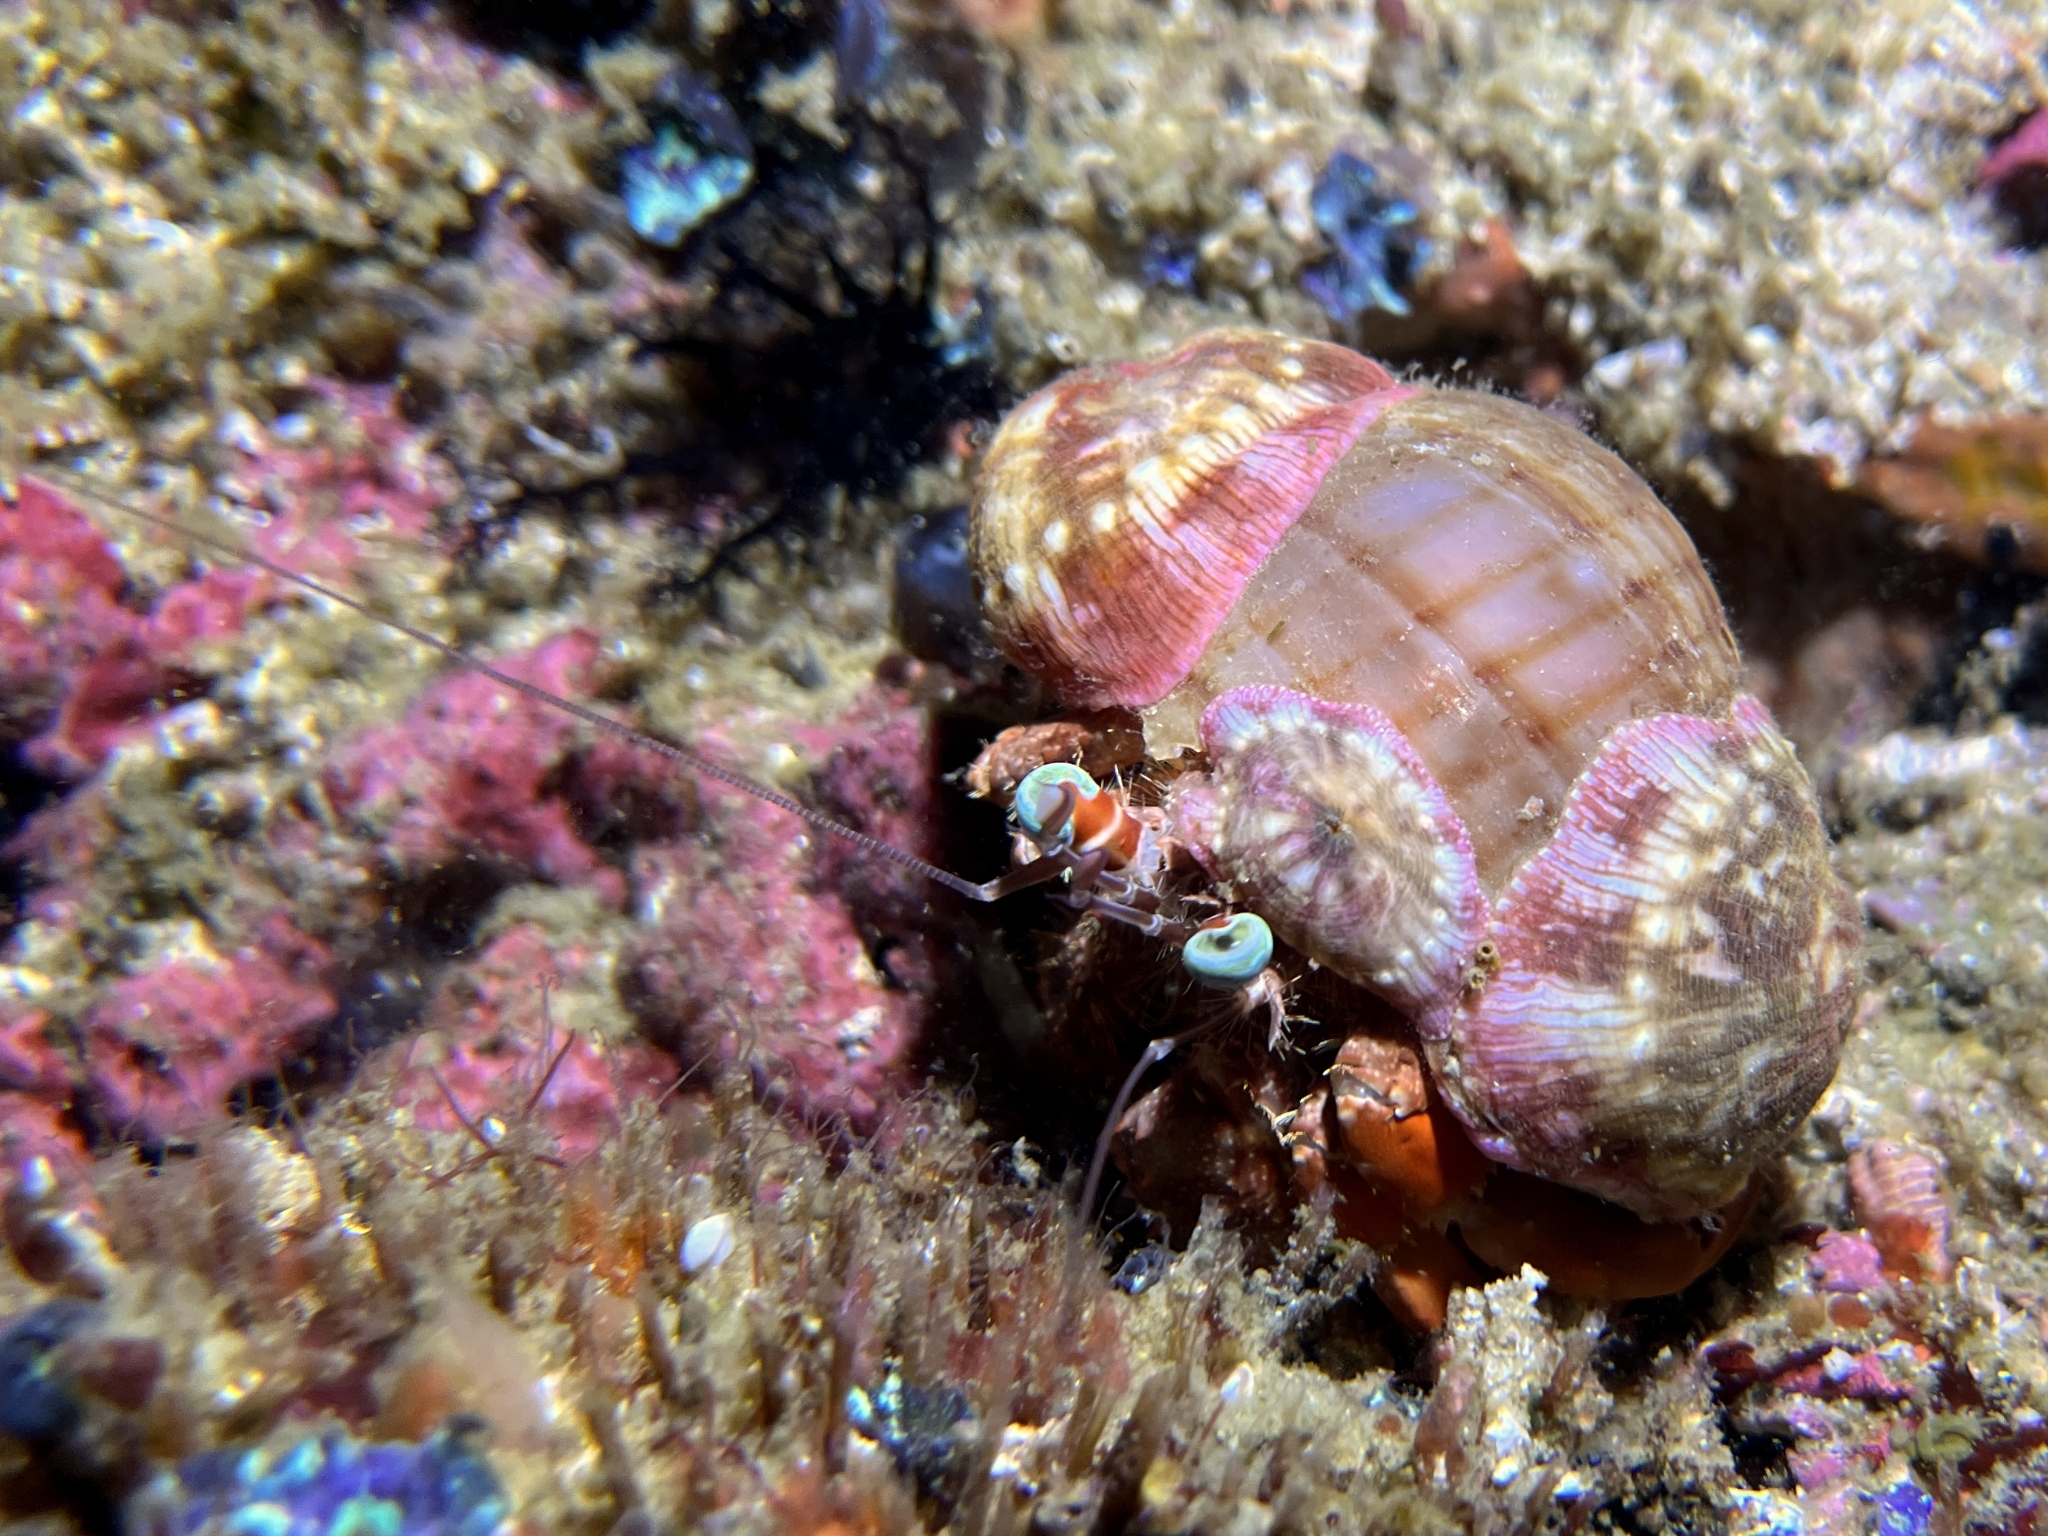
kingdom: Animalia
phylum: Arthropoda
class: Malacostraca
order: Decapoda
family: Diogenidae
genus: Dardanus
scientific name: Dardanus pedunculatus
